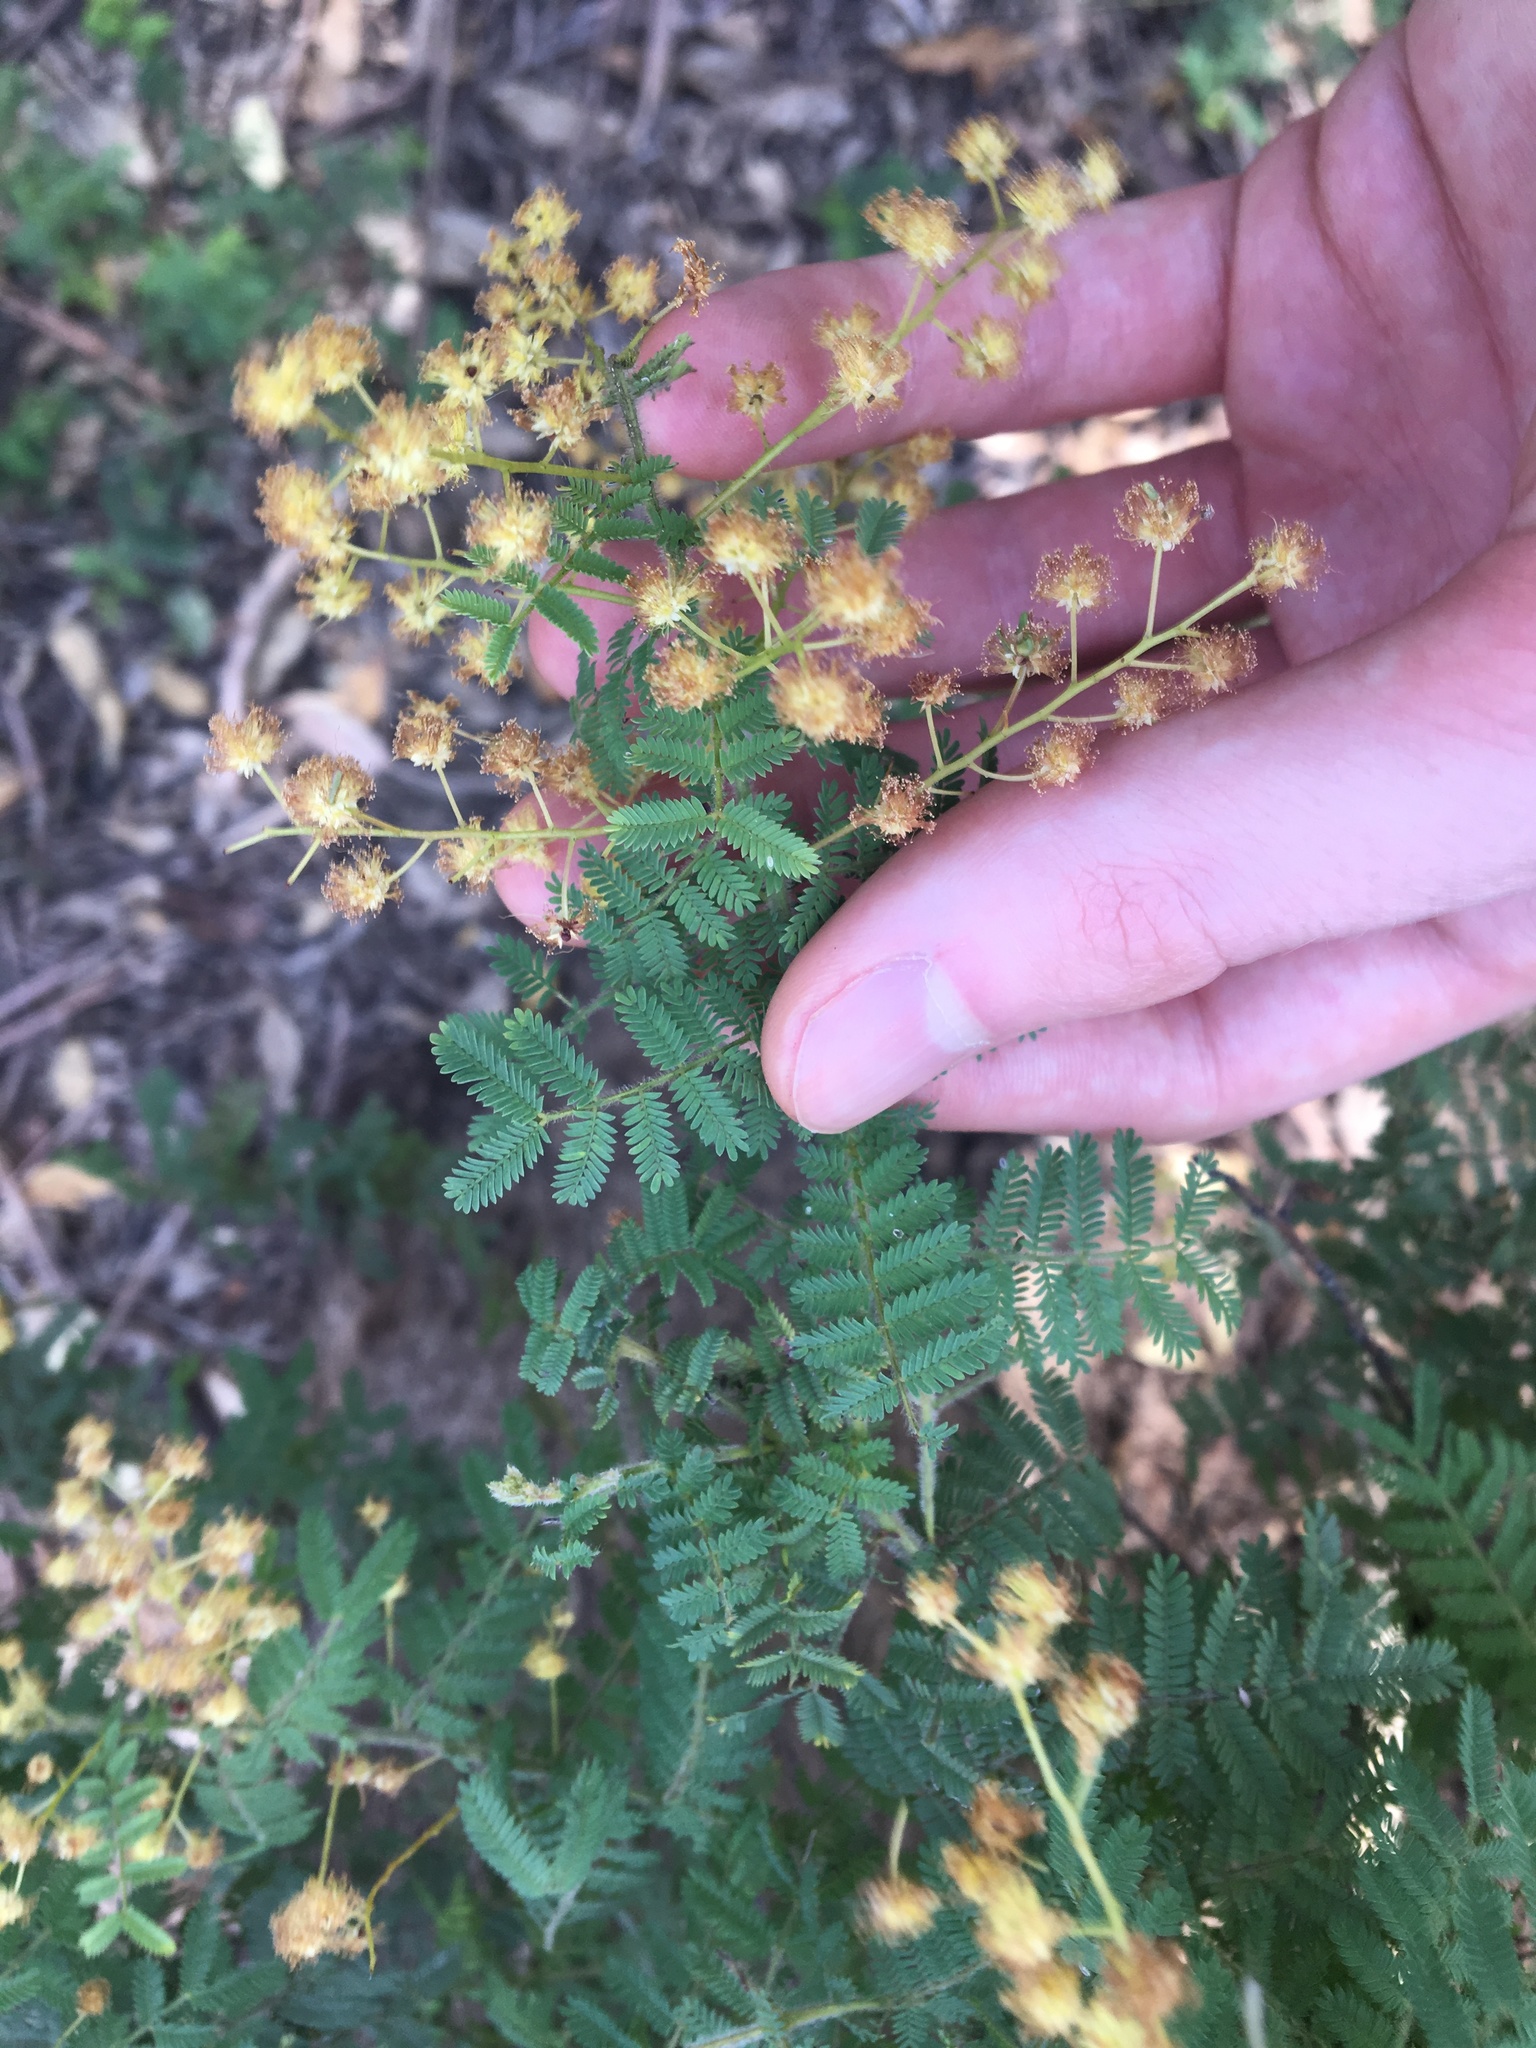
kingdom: Plantae
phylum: Tracheophyta
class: Magnoliopsida
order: Fabales
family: Fabaceae
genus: Acacia
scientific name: Acacia pubescens
